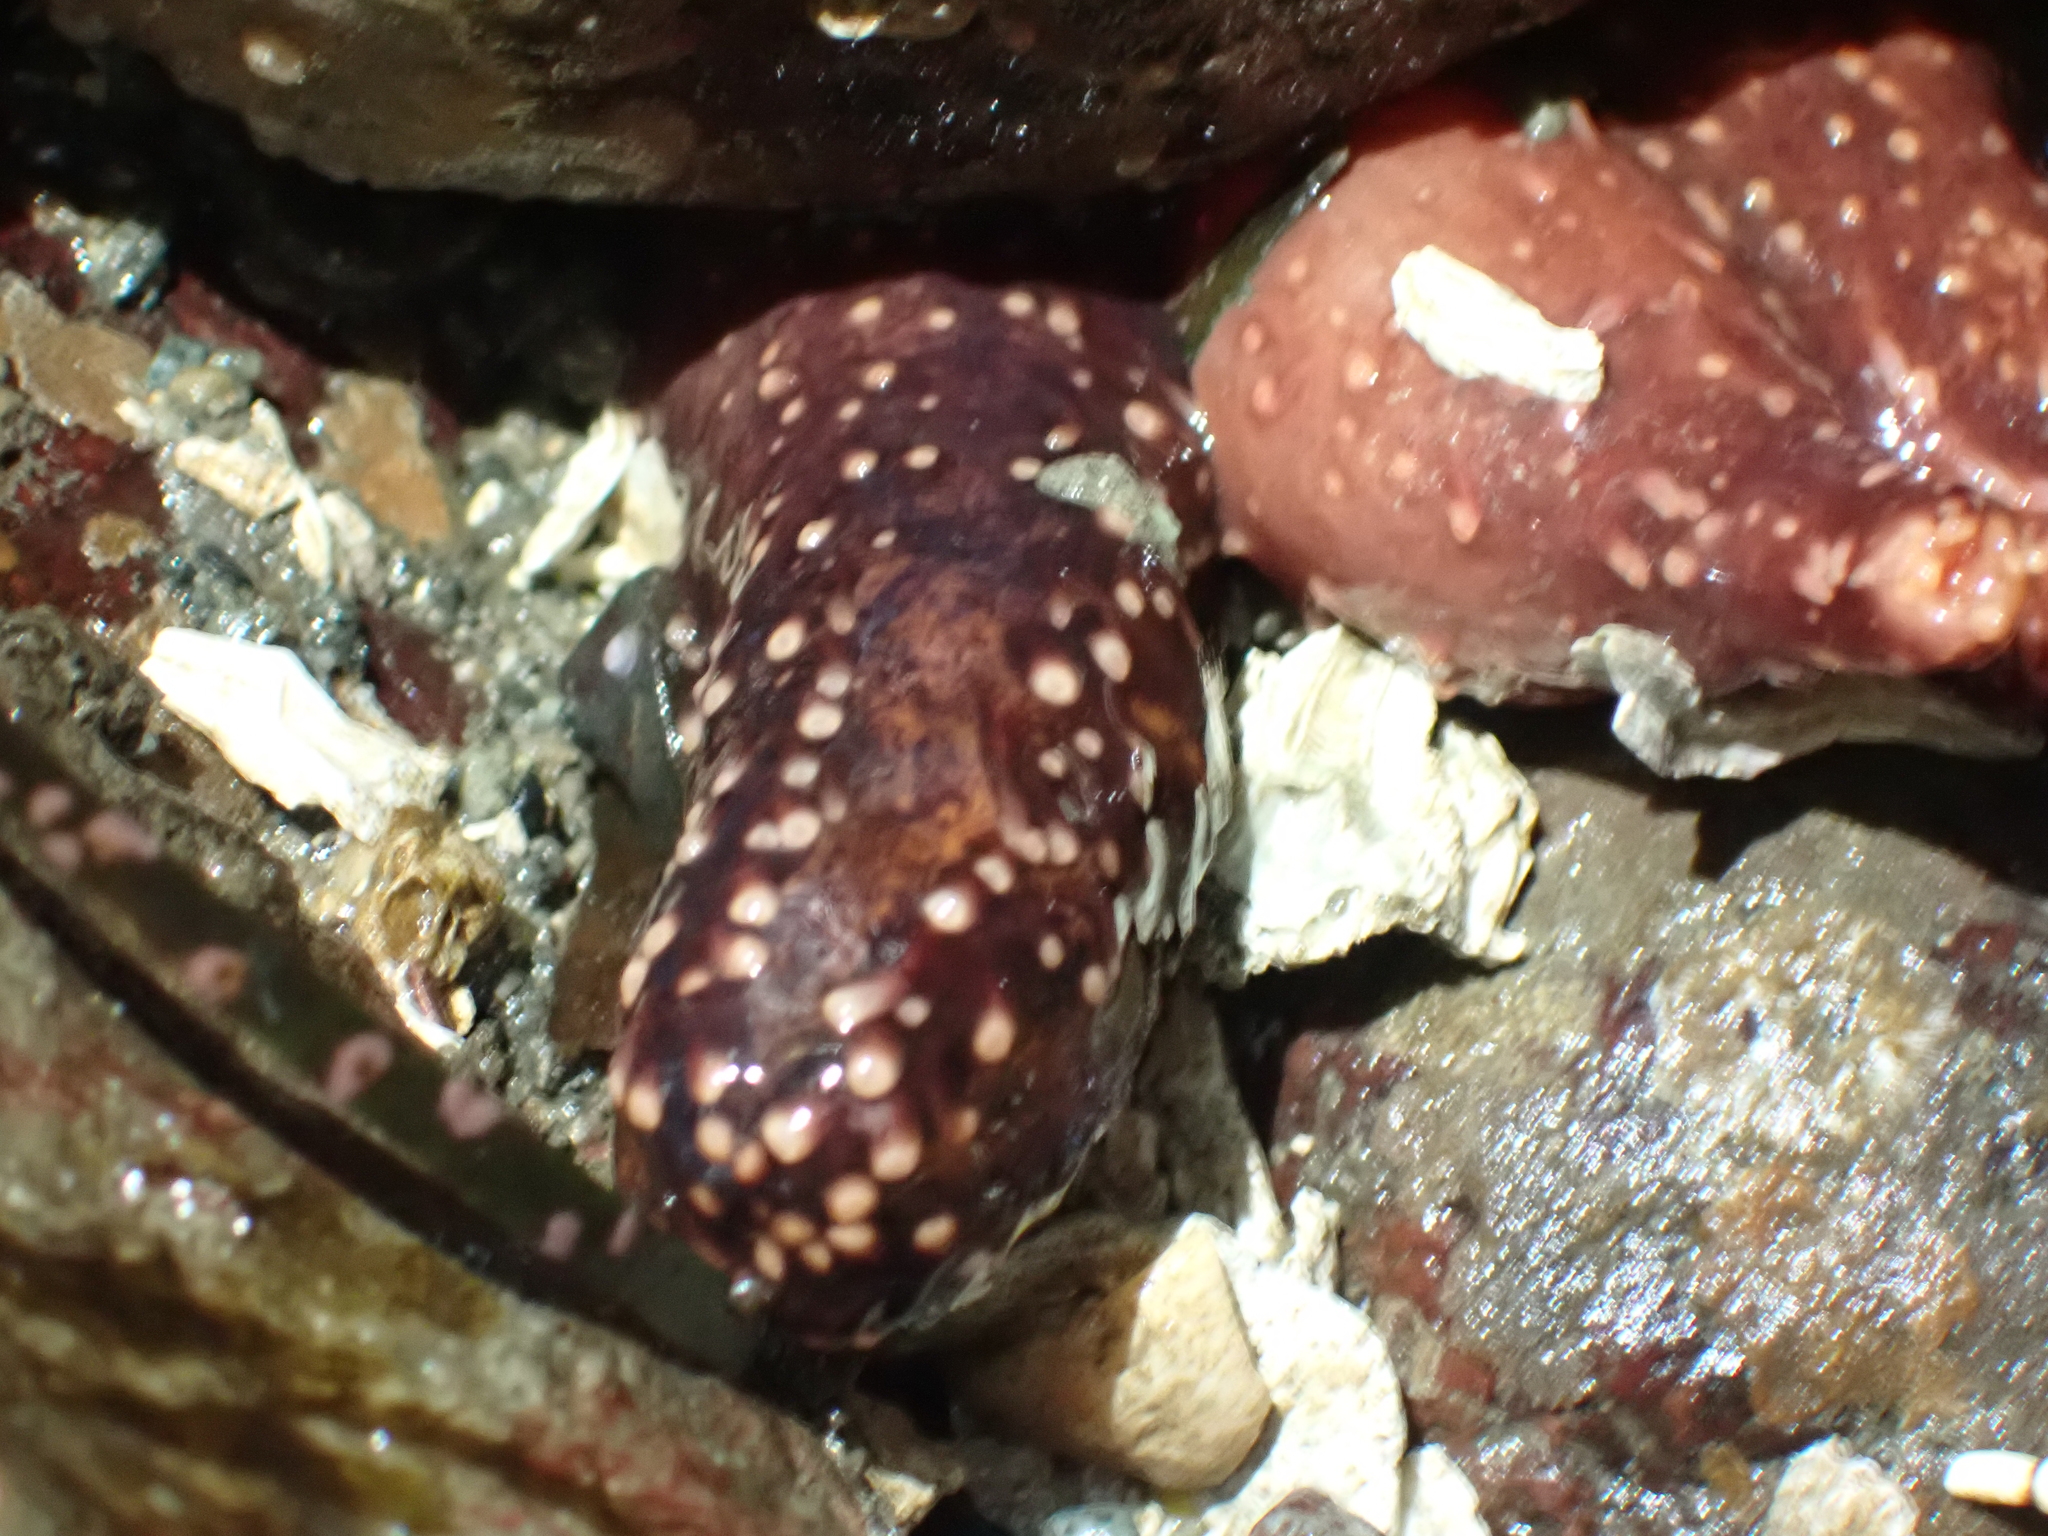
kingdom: Animalia
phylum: Echinodermata
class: Holothuroidea
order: Dendrochirotida
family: Cucumariidae
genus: Cucumaria
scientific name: Cucumaria miniata
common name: Orange sea cucumber
